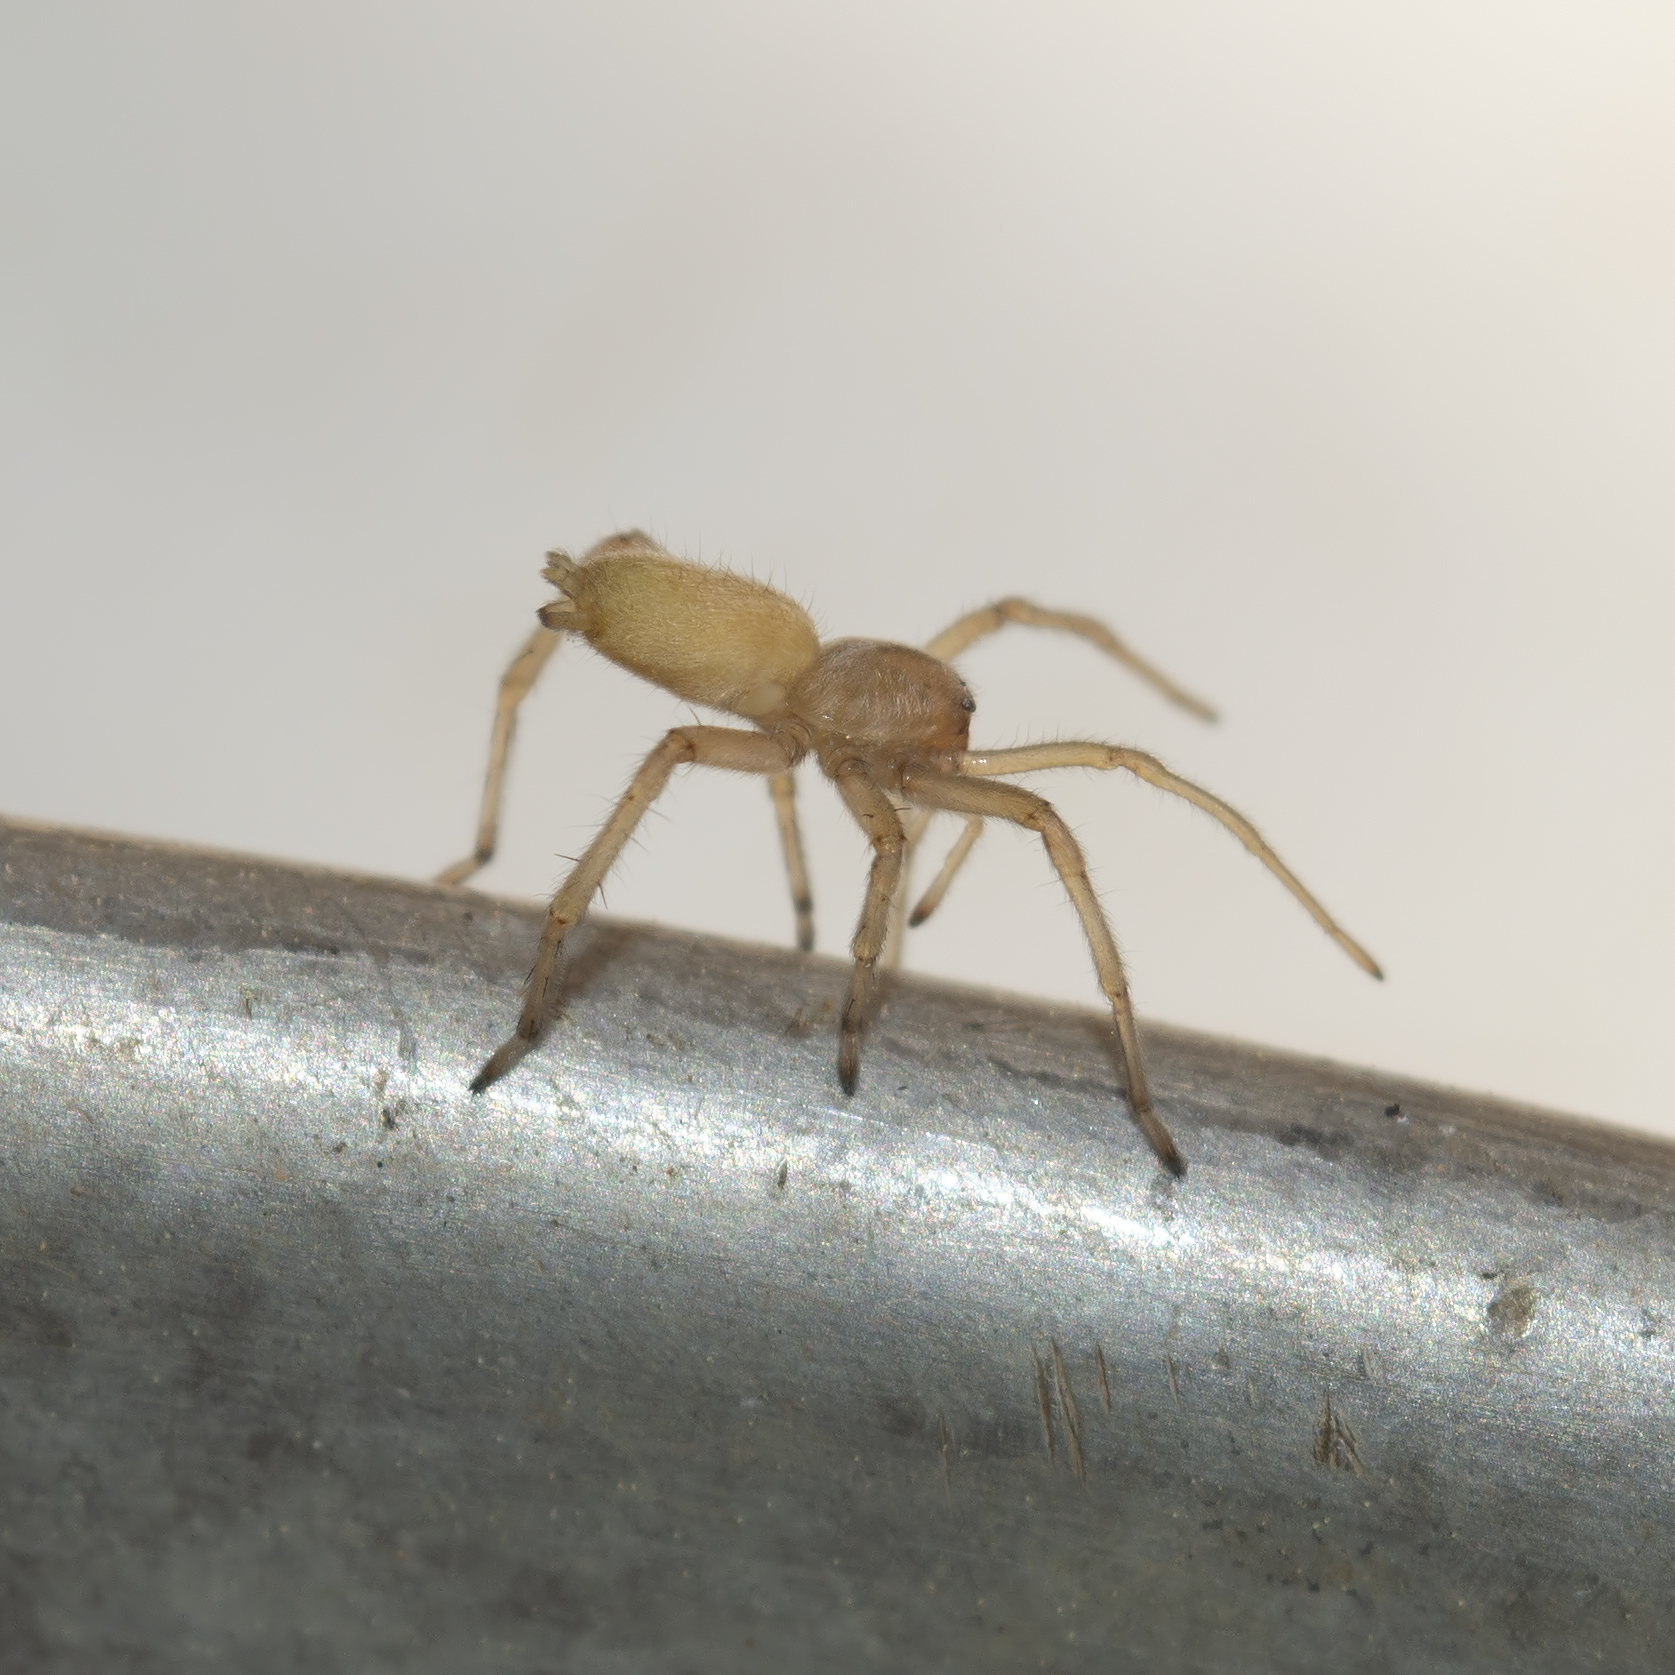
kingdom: Animalia
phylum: Arthropoda
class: Arachnida
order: Araneae
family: Cheiracanthiidae
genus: Cheiracanthium
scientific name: Cheiracanthium
